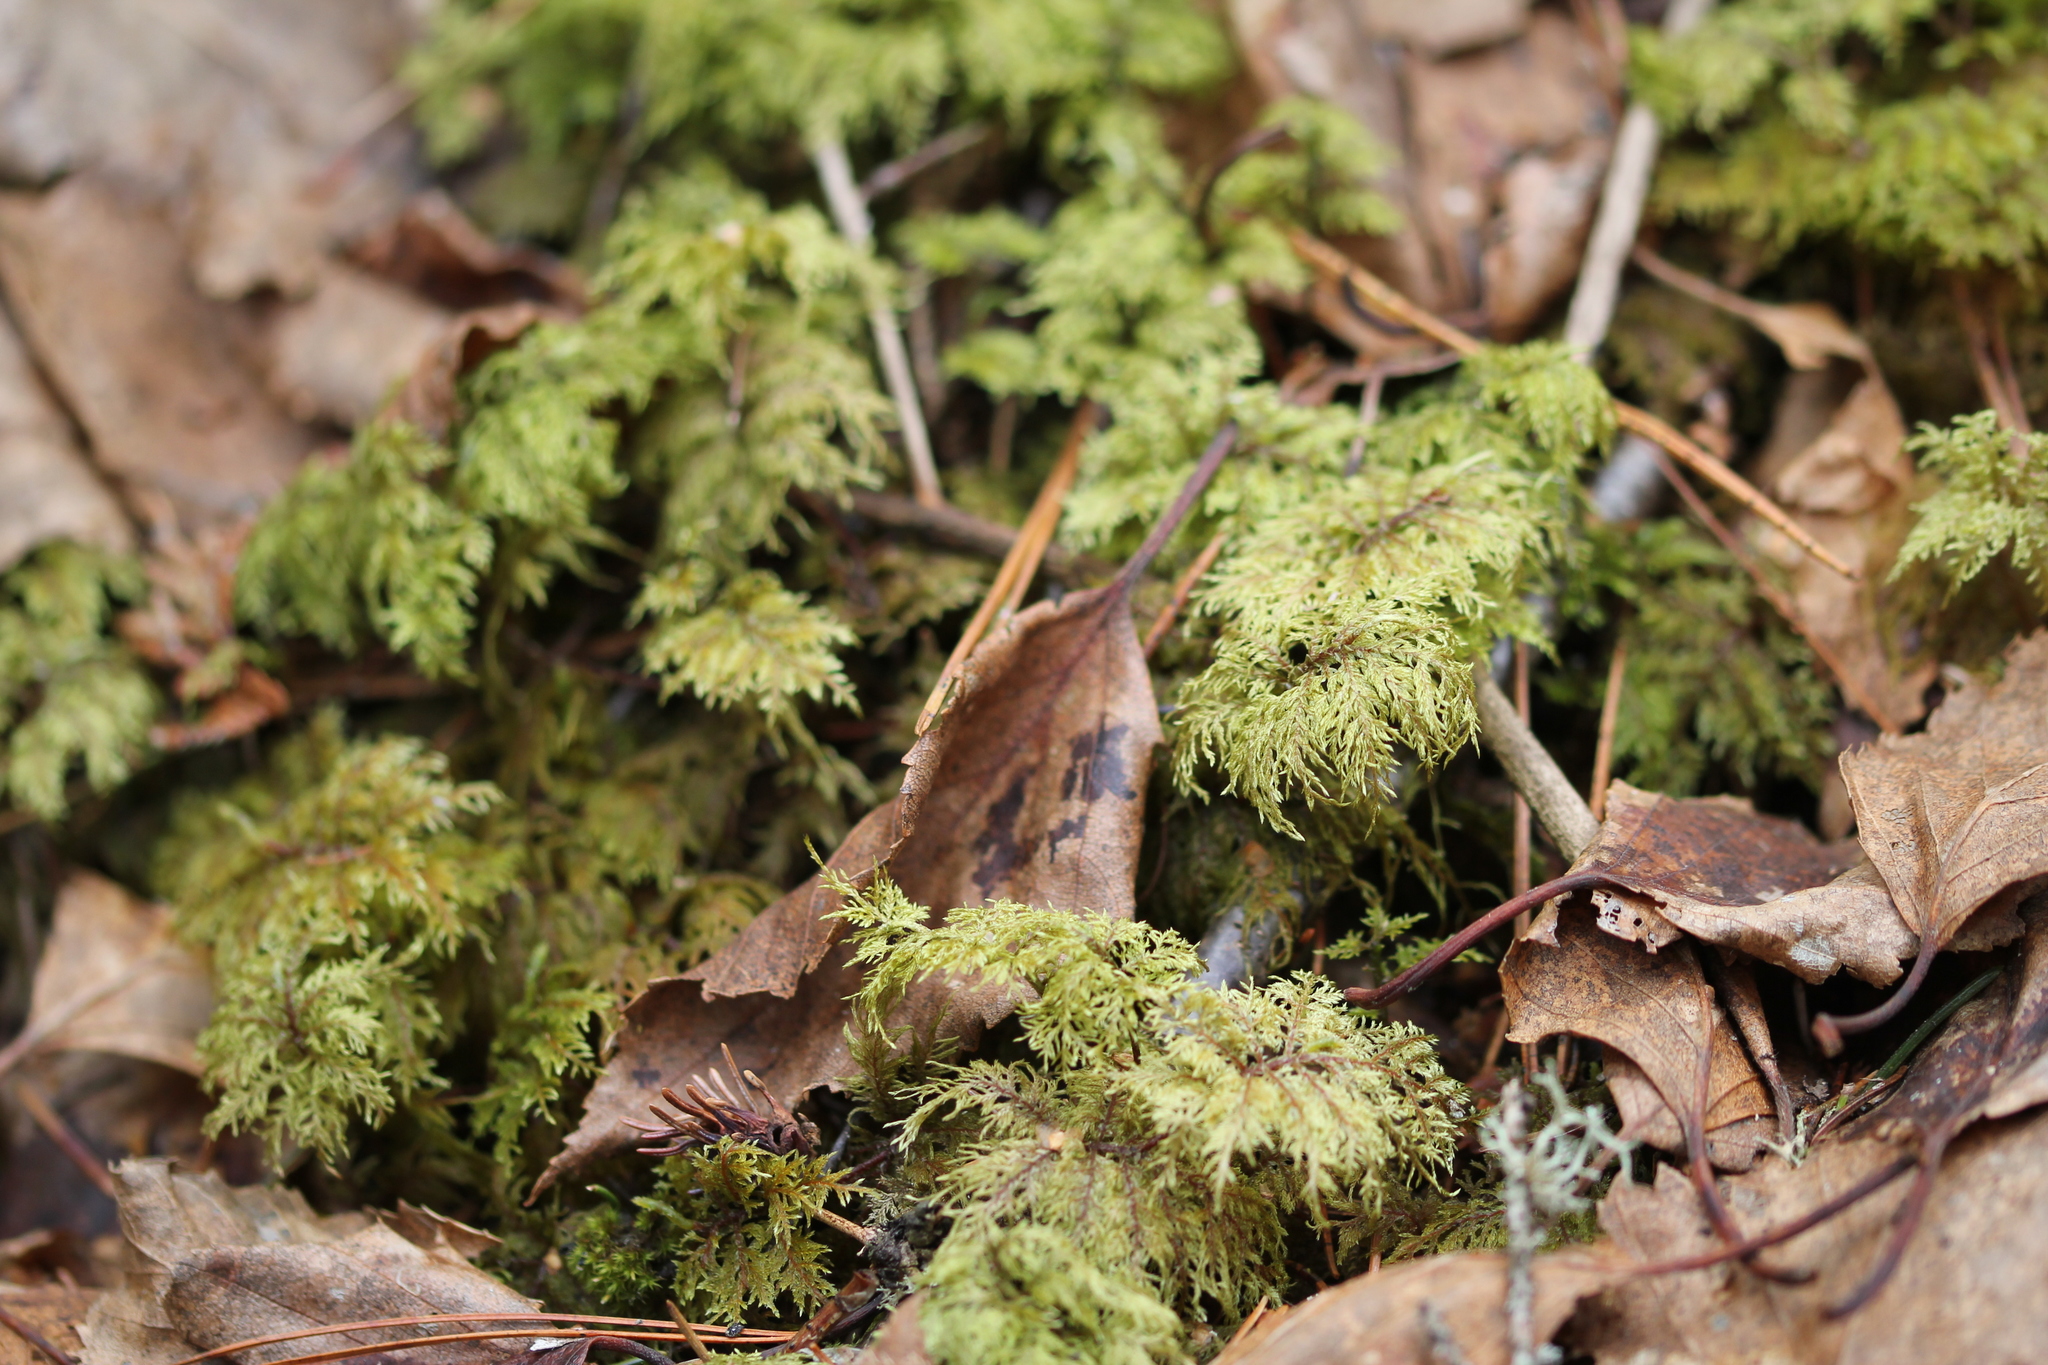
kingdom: Plantae
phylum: Bryophyta
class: Bryopsida
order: Hypnales
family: Hylocomiaceae
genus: Hylocomium
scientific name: Hylocomium splendens
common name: Stairstep moss
